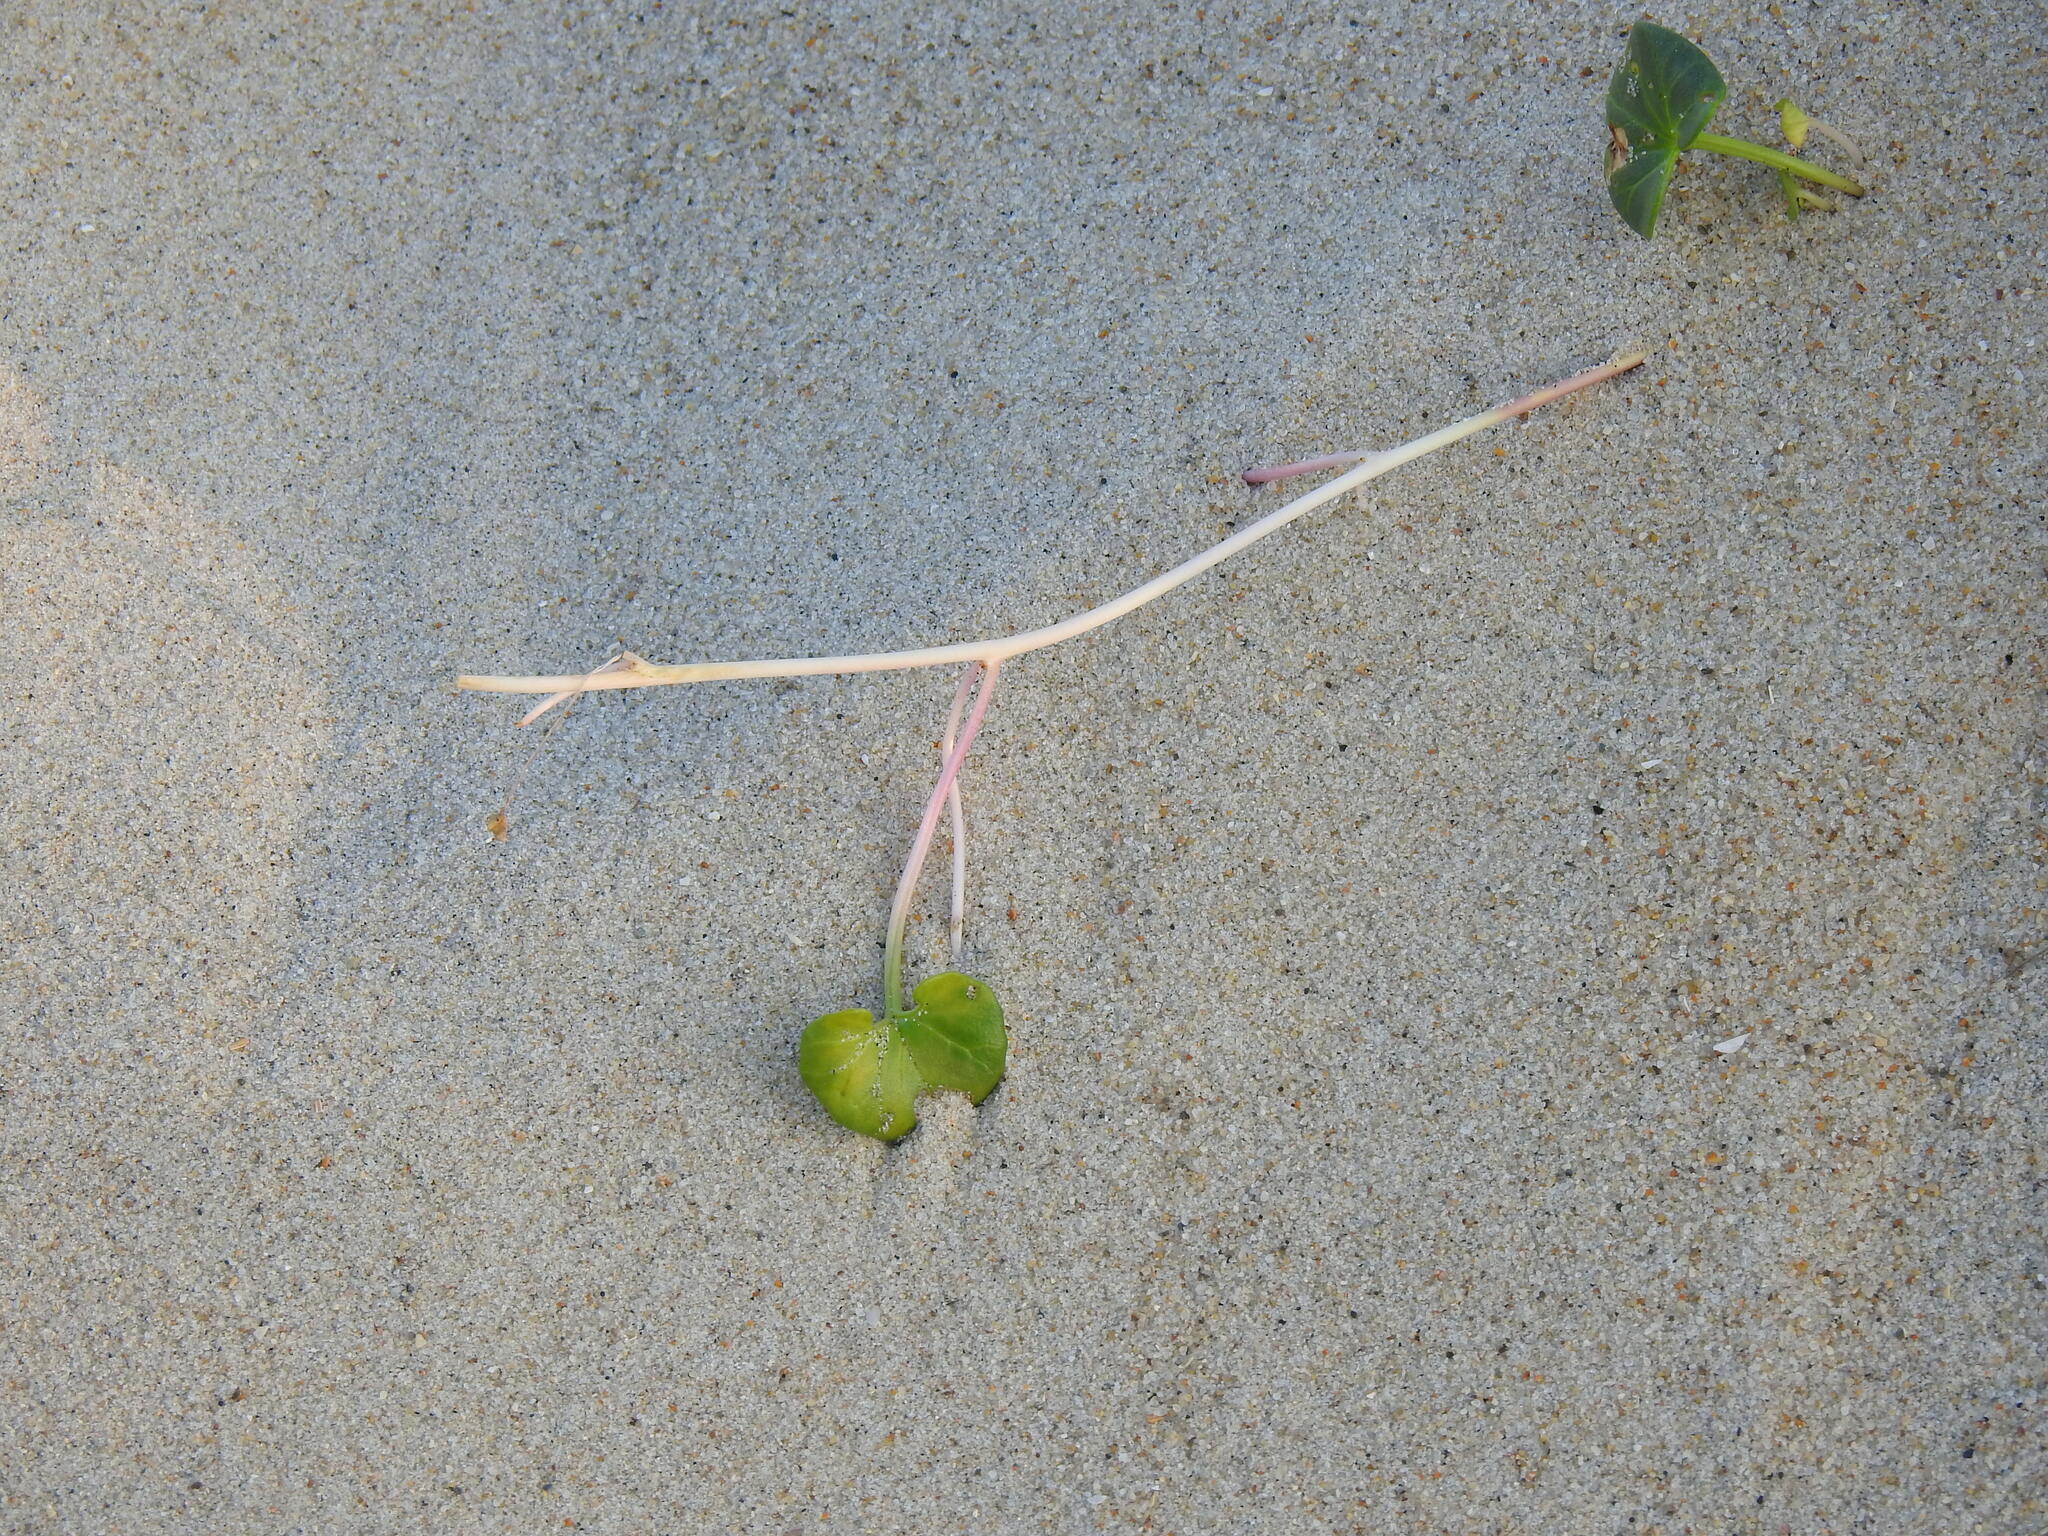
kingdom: Plantae
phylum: Tracheophyta
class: Magnoliopsida
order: Solanales
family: Convolvulaceae
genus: Calystegia
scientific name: Calystegia soldanella
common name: Sea bindweed
